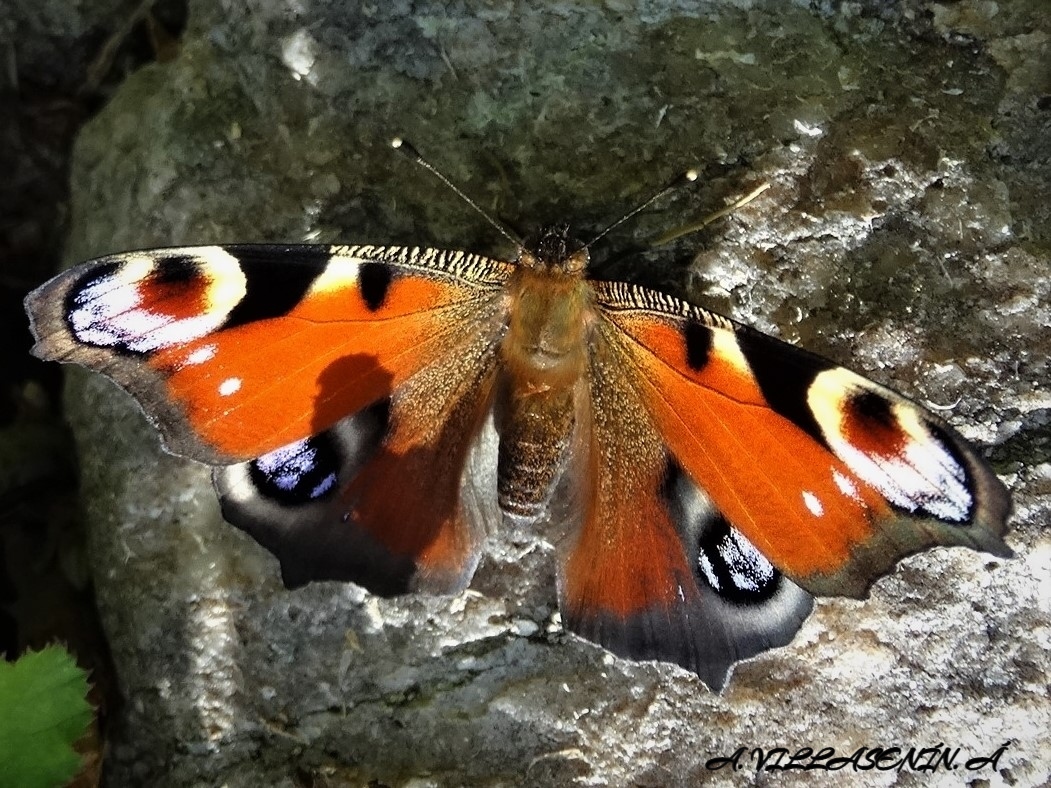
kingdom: Animalia
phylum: Arthropoda
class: Insecta
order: Lepidoptera
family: Nymphalidae
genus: Aglais
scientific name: Aglais io
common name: Peacock
